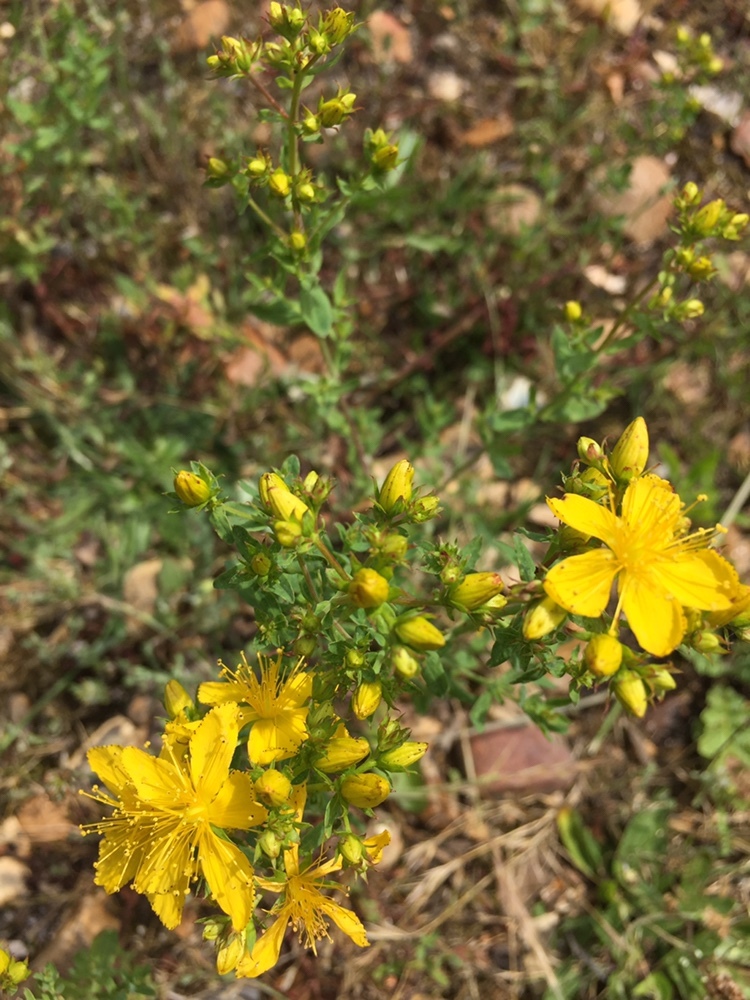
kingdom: Plantae
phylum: Tracheophyta
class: Magnoliopsida
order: Malpighiales
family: Hypericaceae
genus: Hypericum
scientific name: Hypericum perforatum
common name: Common st. johnswort
